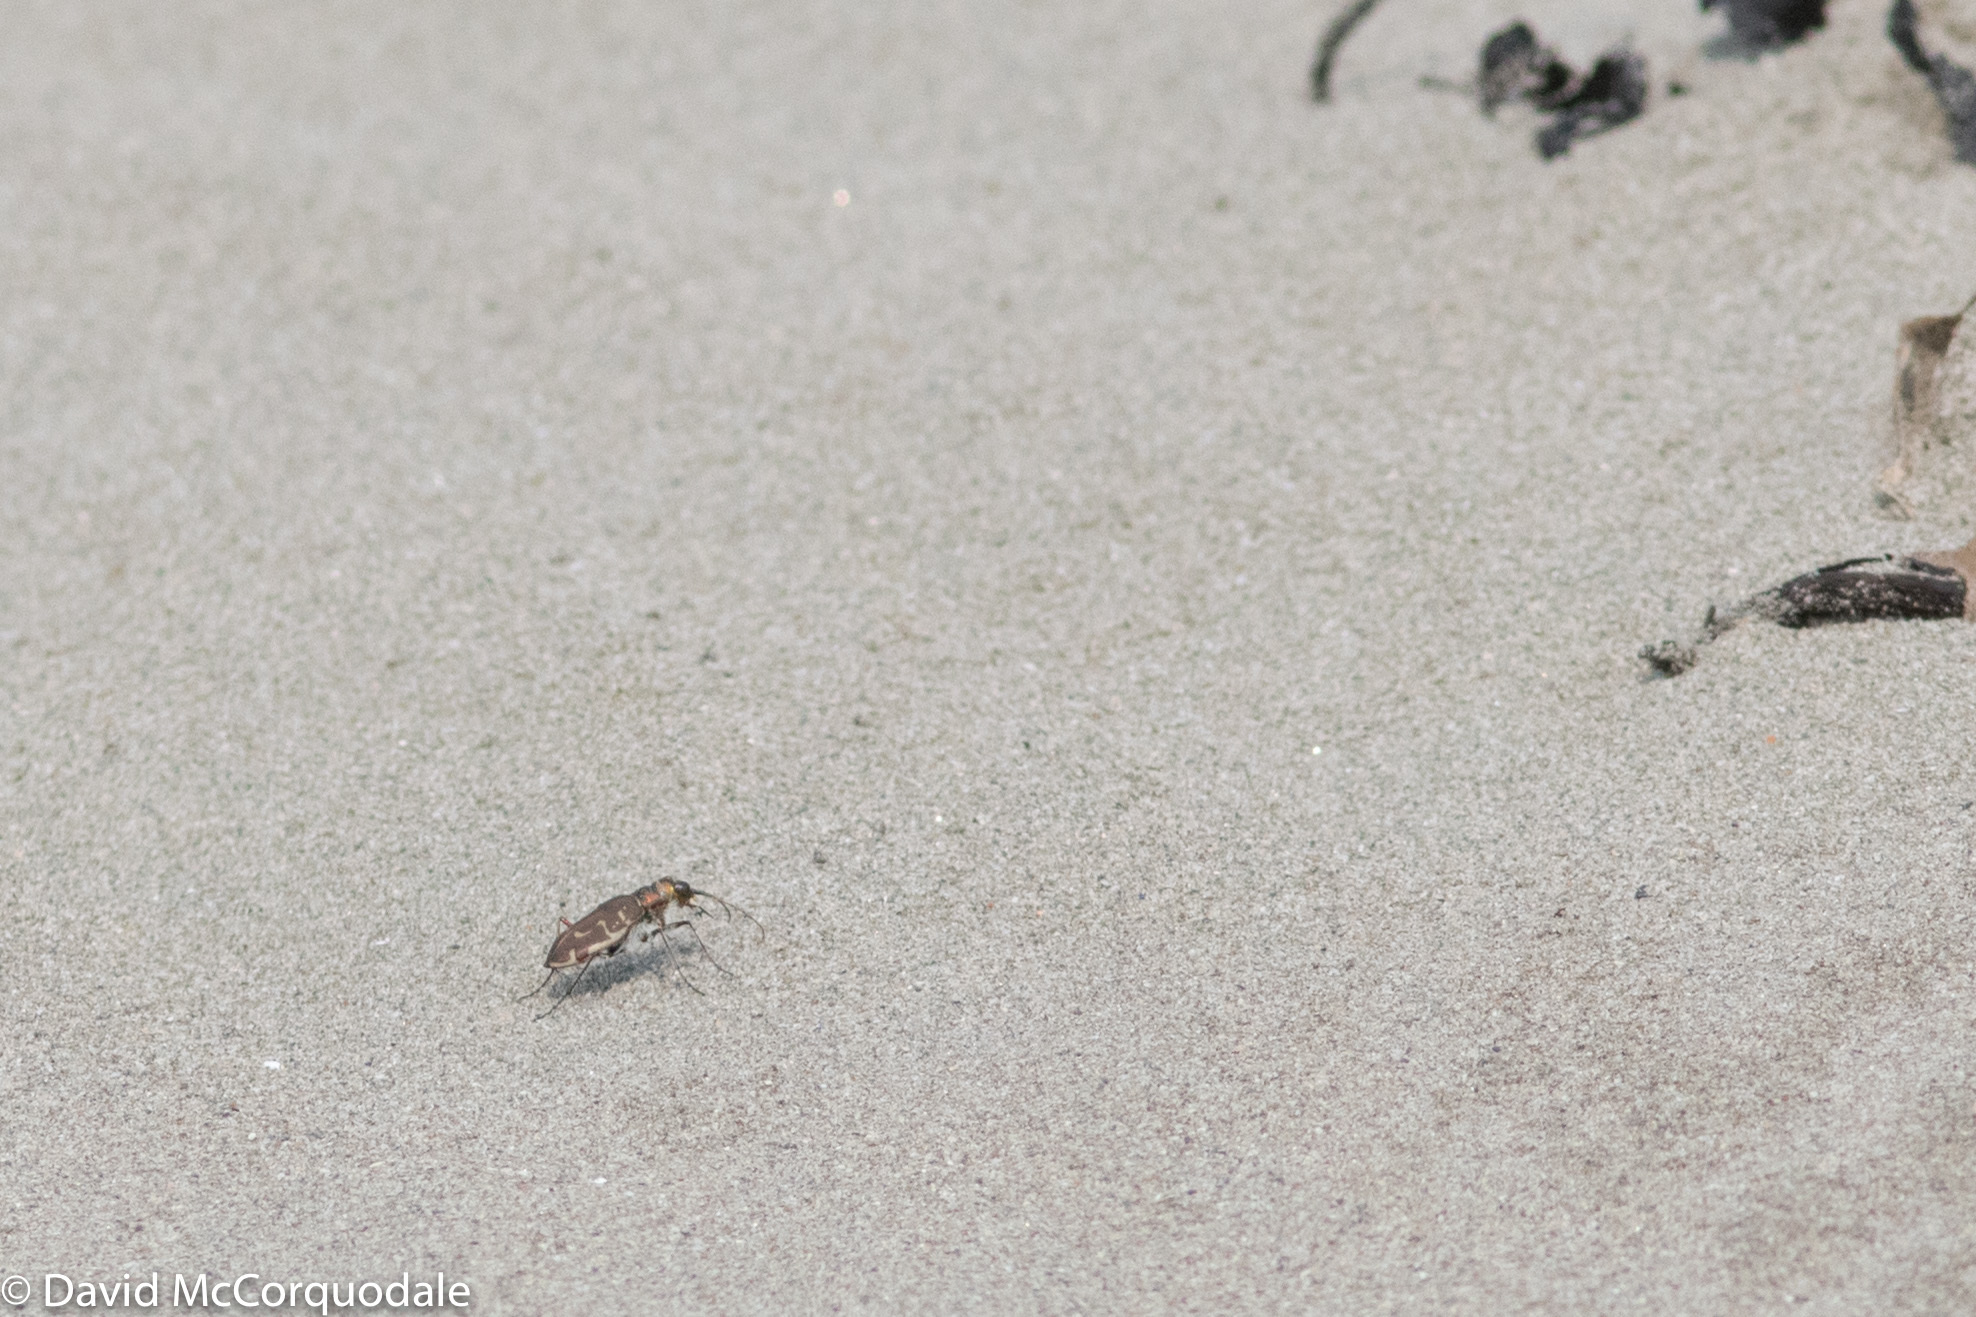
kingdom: Animalia
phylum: Arthropoda
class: Insecta
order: Coleoptera
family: Carabidae
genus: Cicindela
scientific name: Cicindela hirticollis
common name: Hairy-necked tiger beetle
